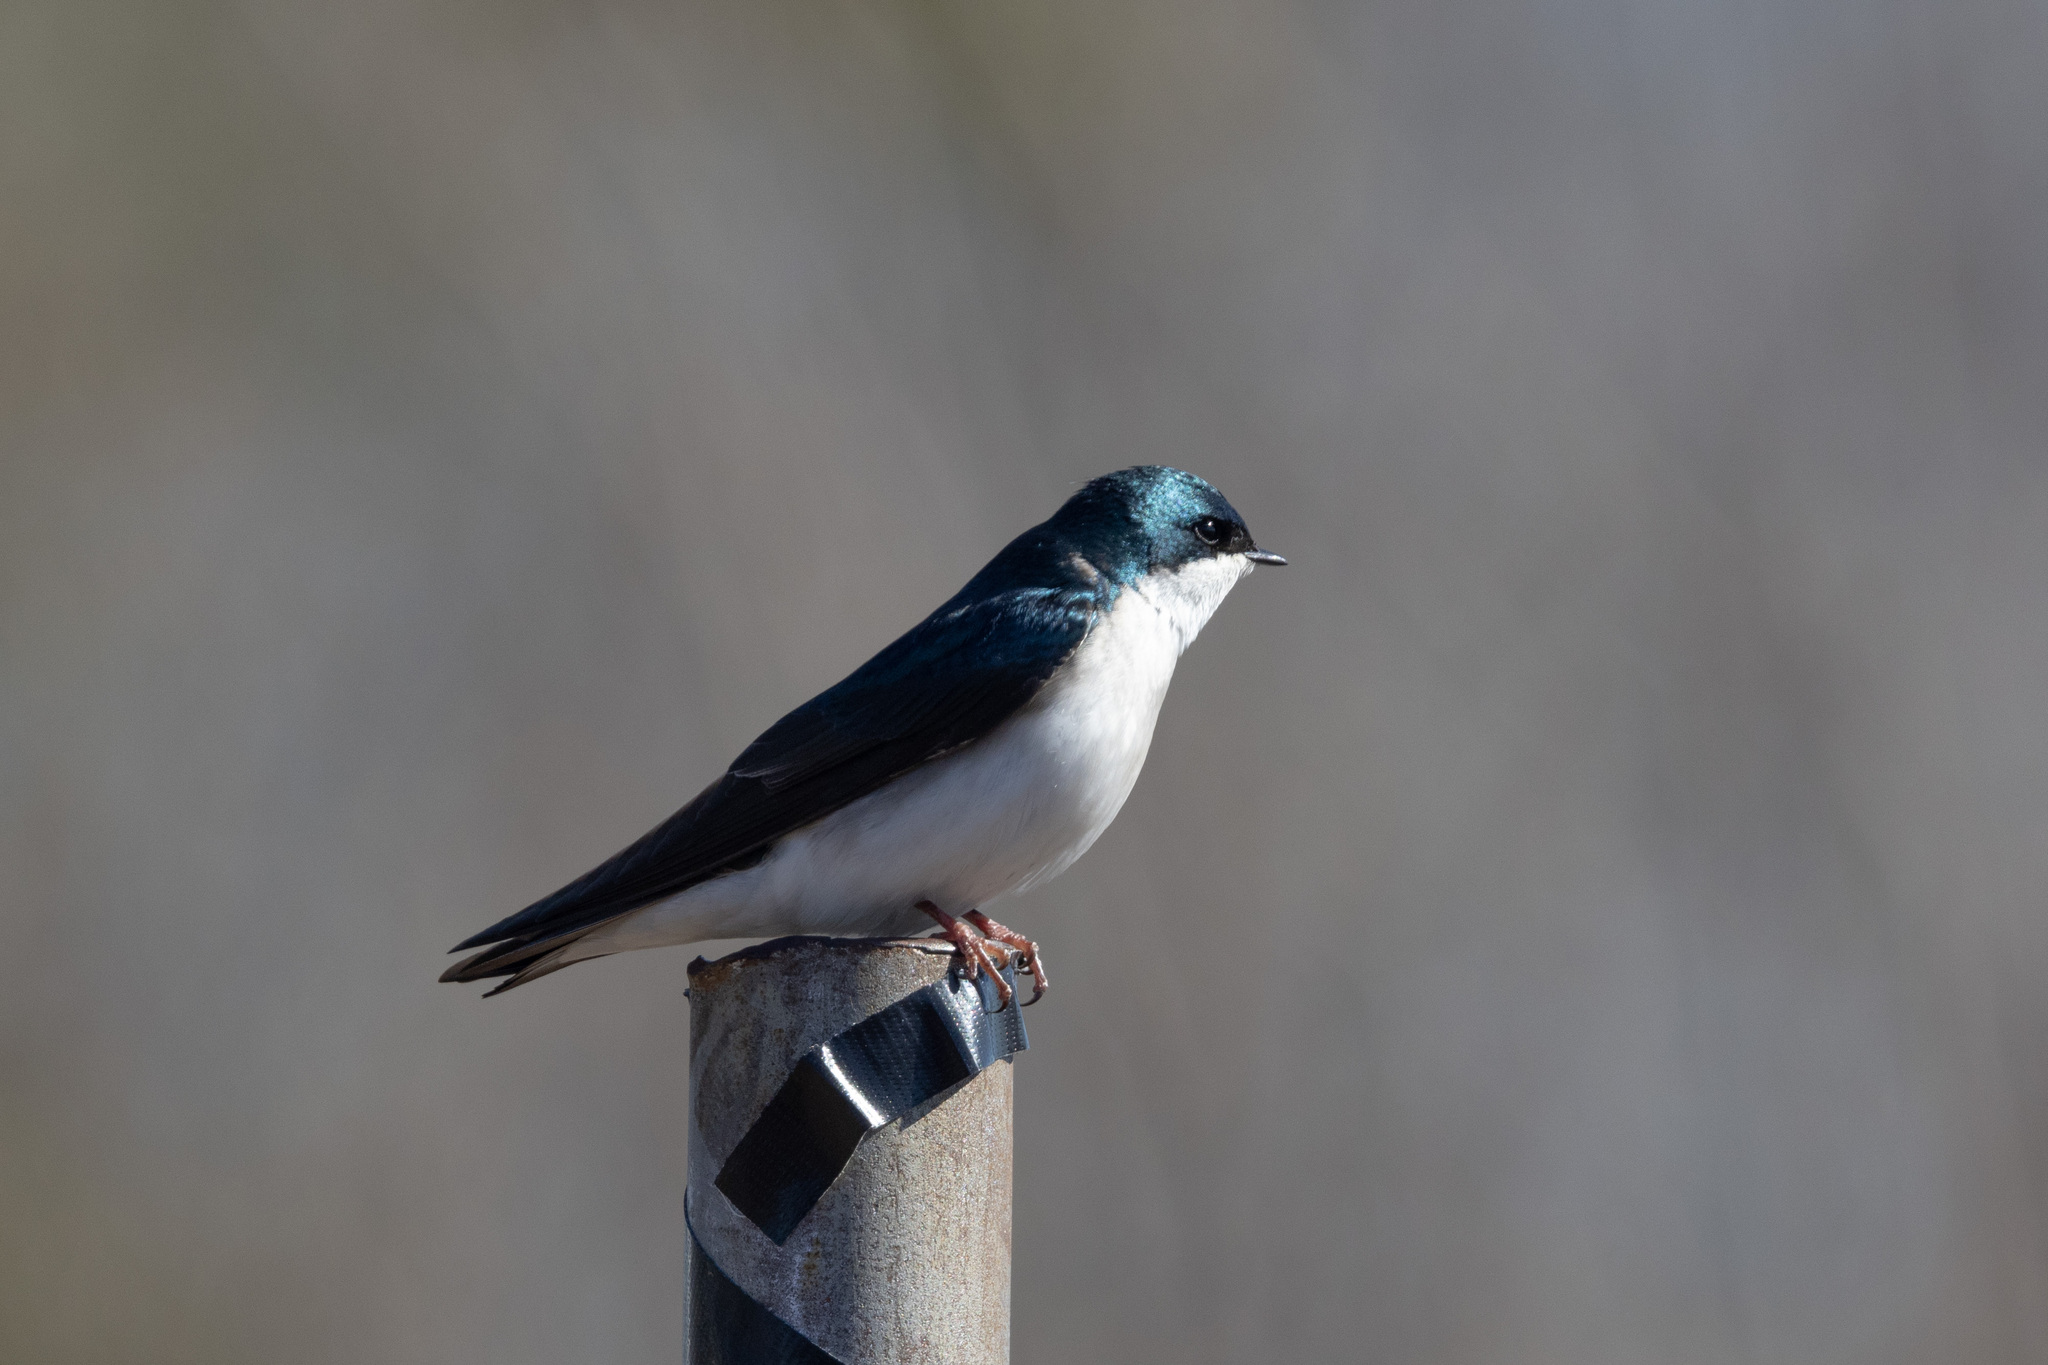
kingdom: Animalia
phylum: Chordata
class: Aves
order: Passeriformes
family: Hirundinidae
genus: Tachycineta
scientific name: Tachycineta bicolor
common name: Tree swallow
